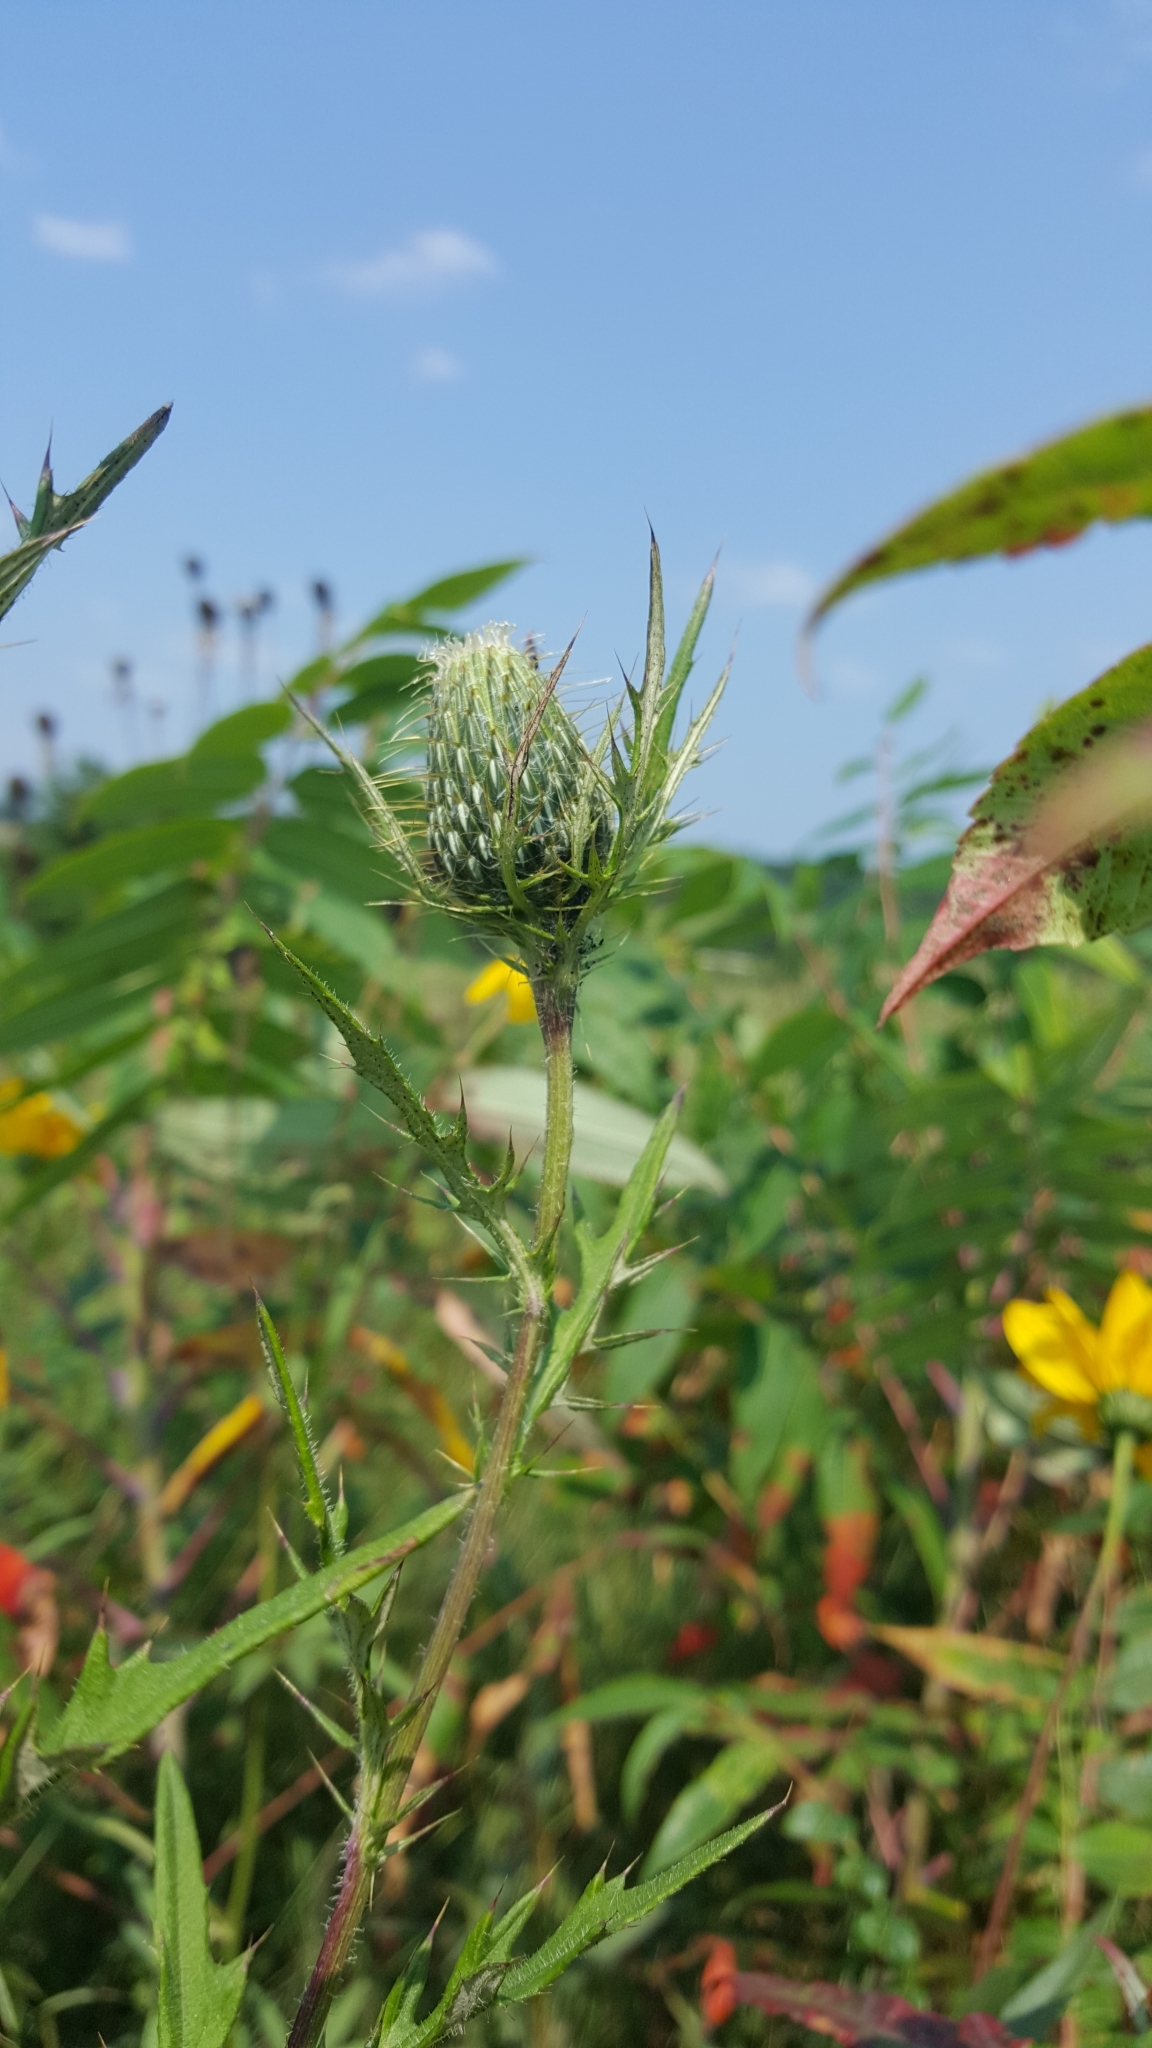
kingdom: Plantae
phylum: Tracheophyta
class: Magnoliopsida
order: Asterales
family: Asteraceae
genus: Cirsium
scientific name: Cirsium discolor
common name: Field thistle
